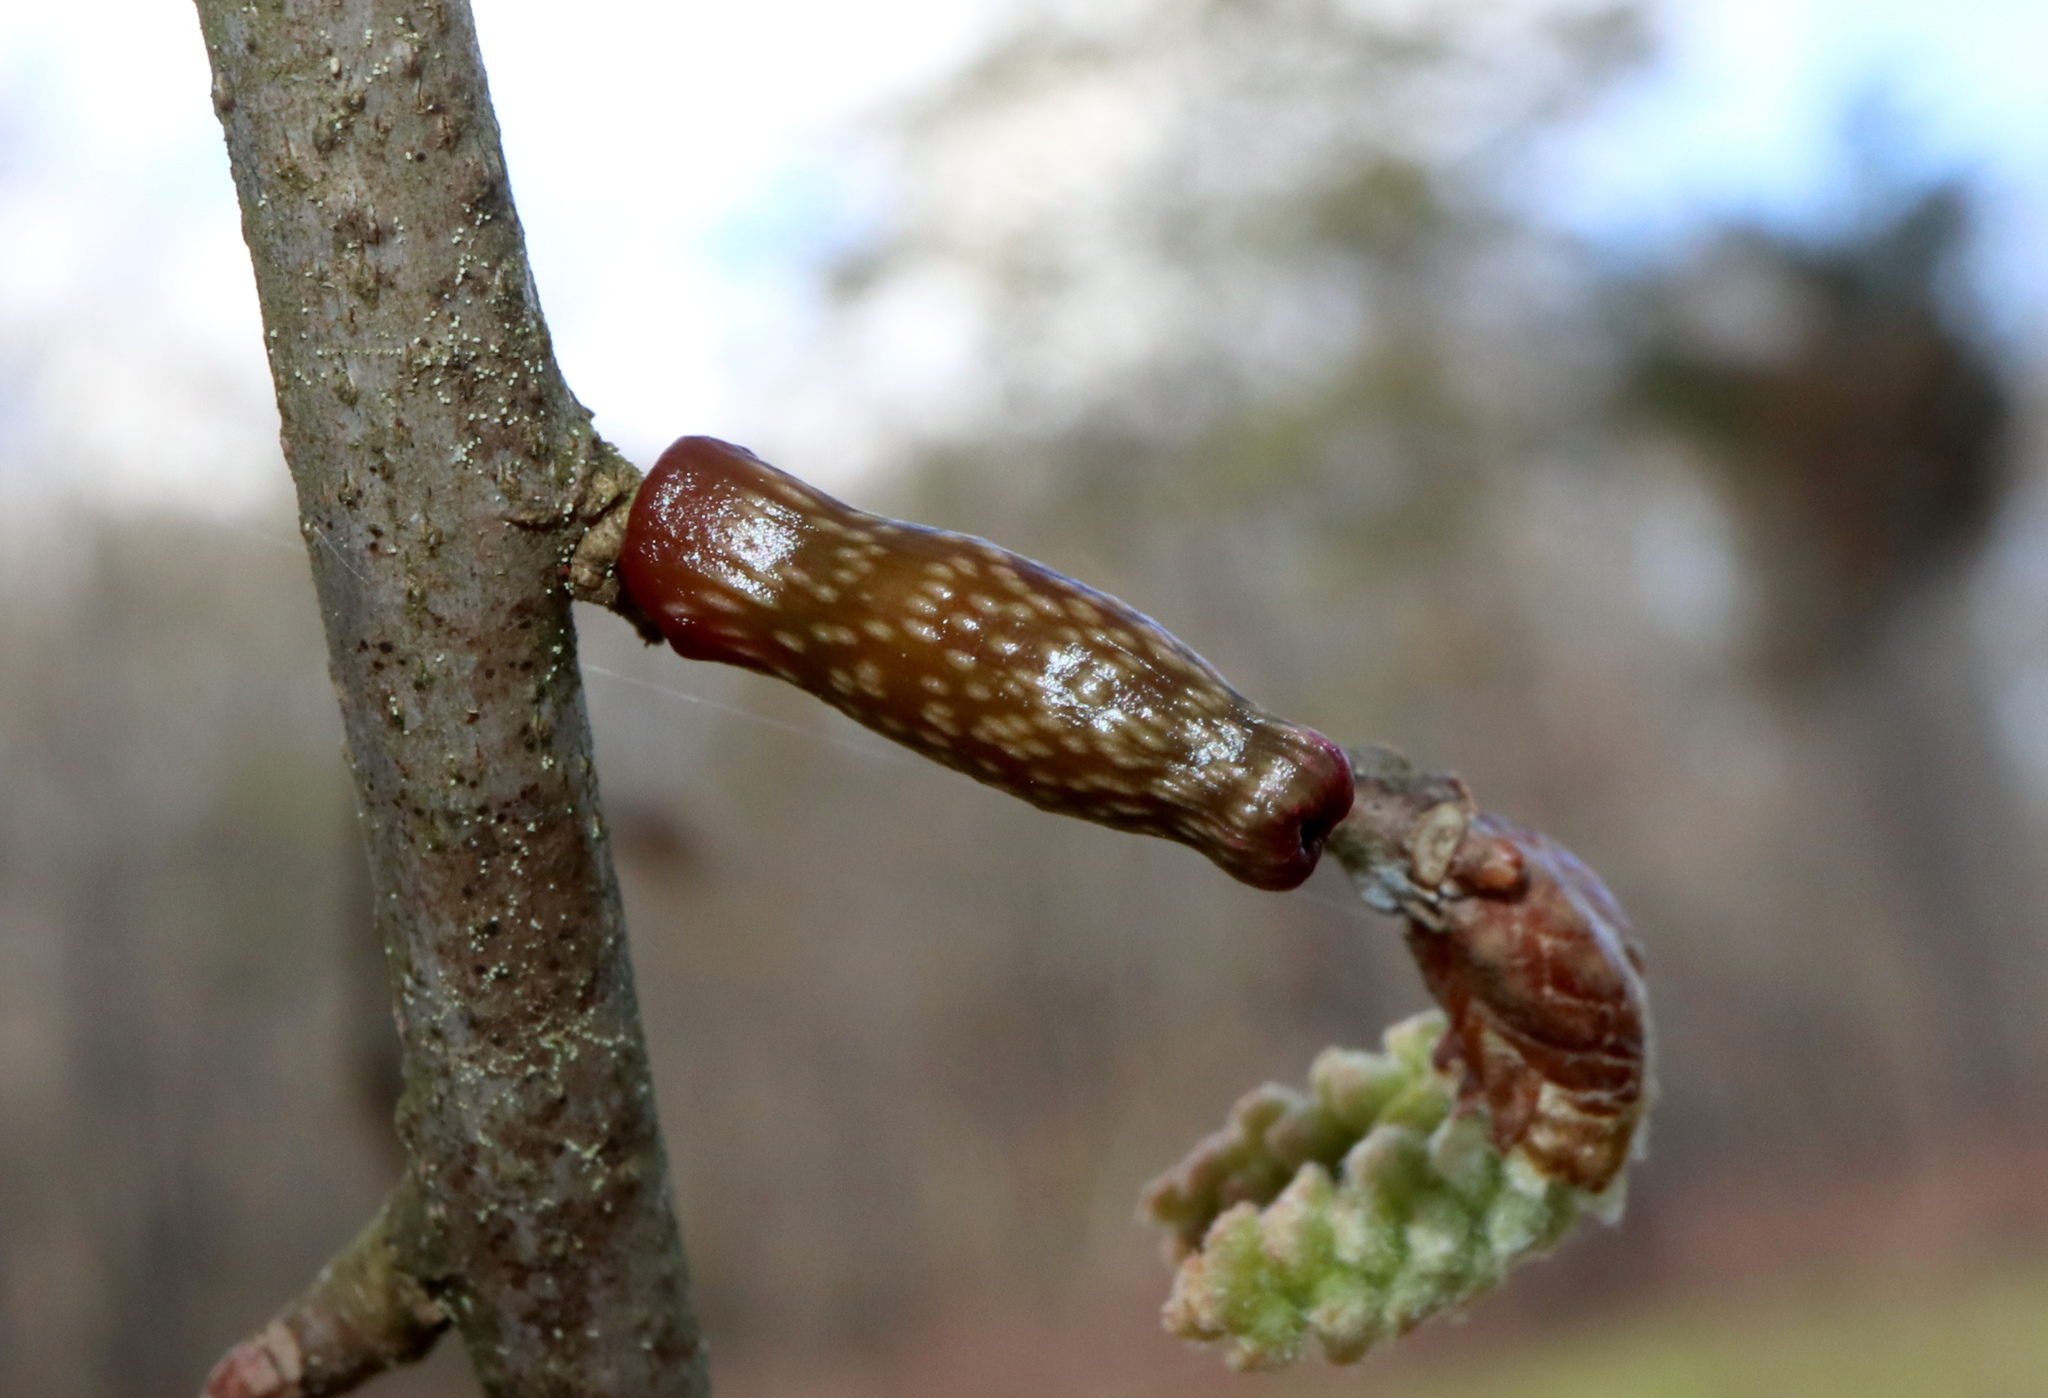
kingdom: Animalia
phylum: Arthropoda
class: Insecta
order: Hymenoptera
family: Cynipidae
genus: Amphibolips
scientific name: Amphibolips
